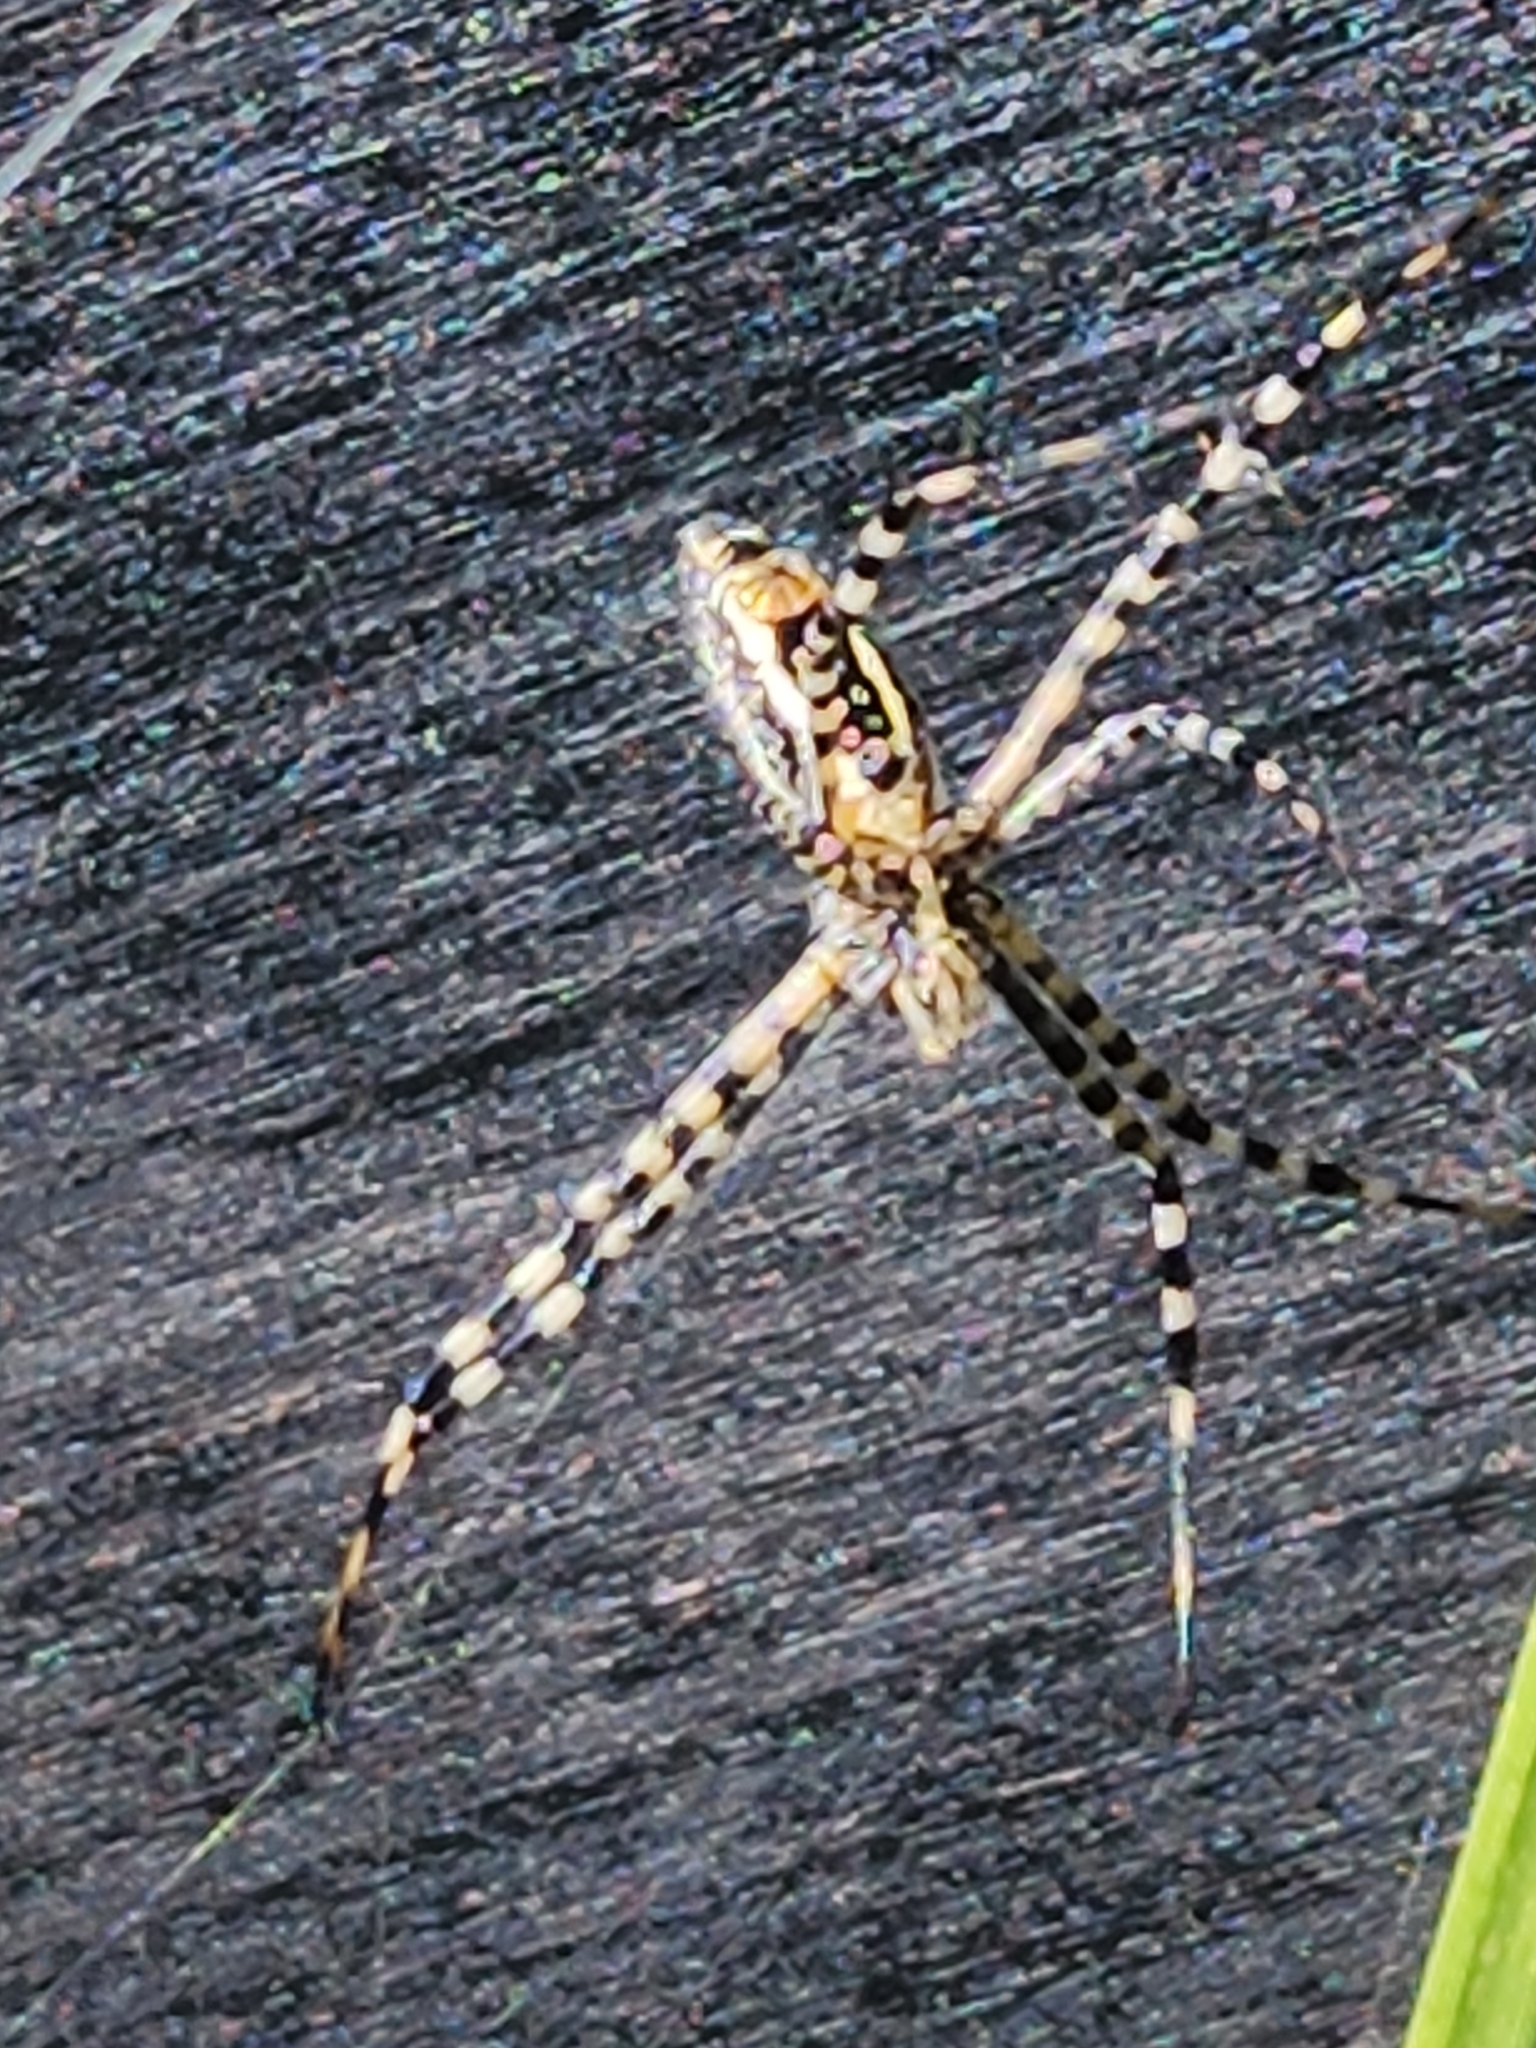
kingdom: Animalia
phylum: Arthropoda
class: Arachnida
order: Araneae
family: Araneidae
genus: Argiope
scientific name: Argiope trifasciata
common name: Banded garden spider
